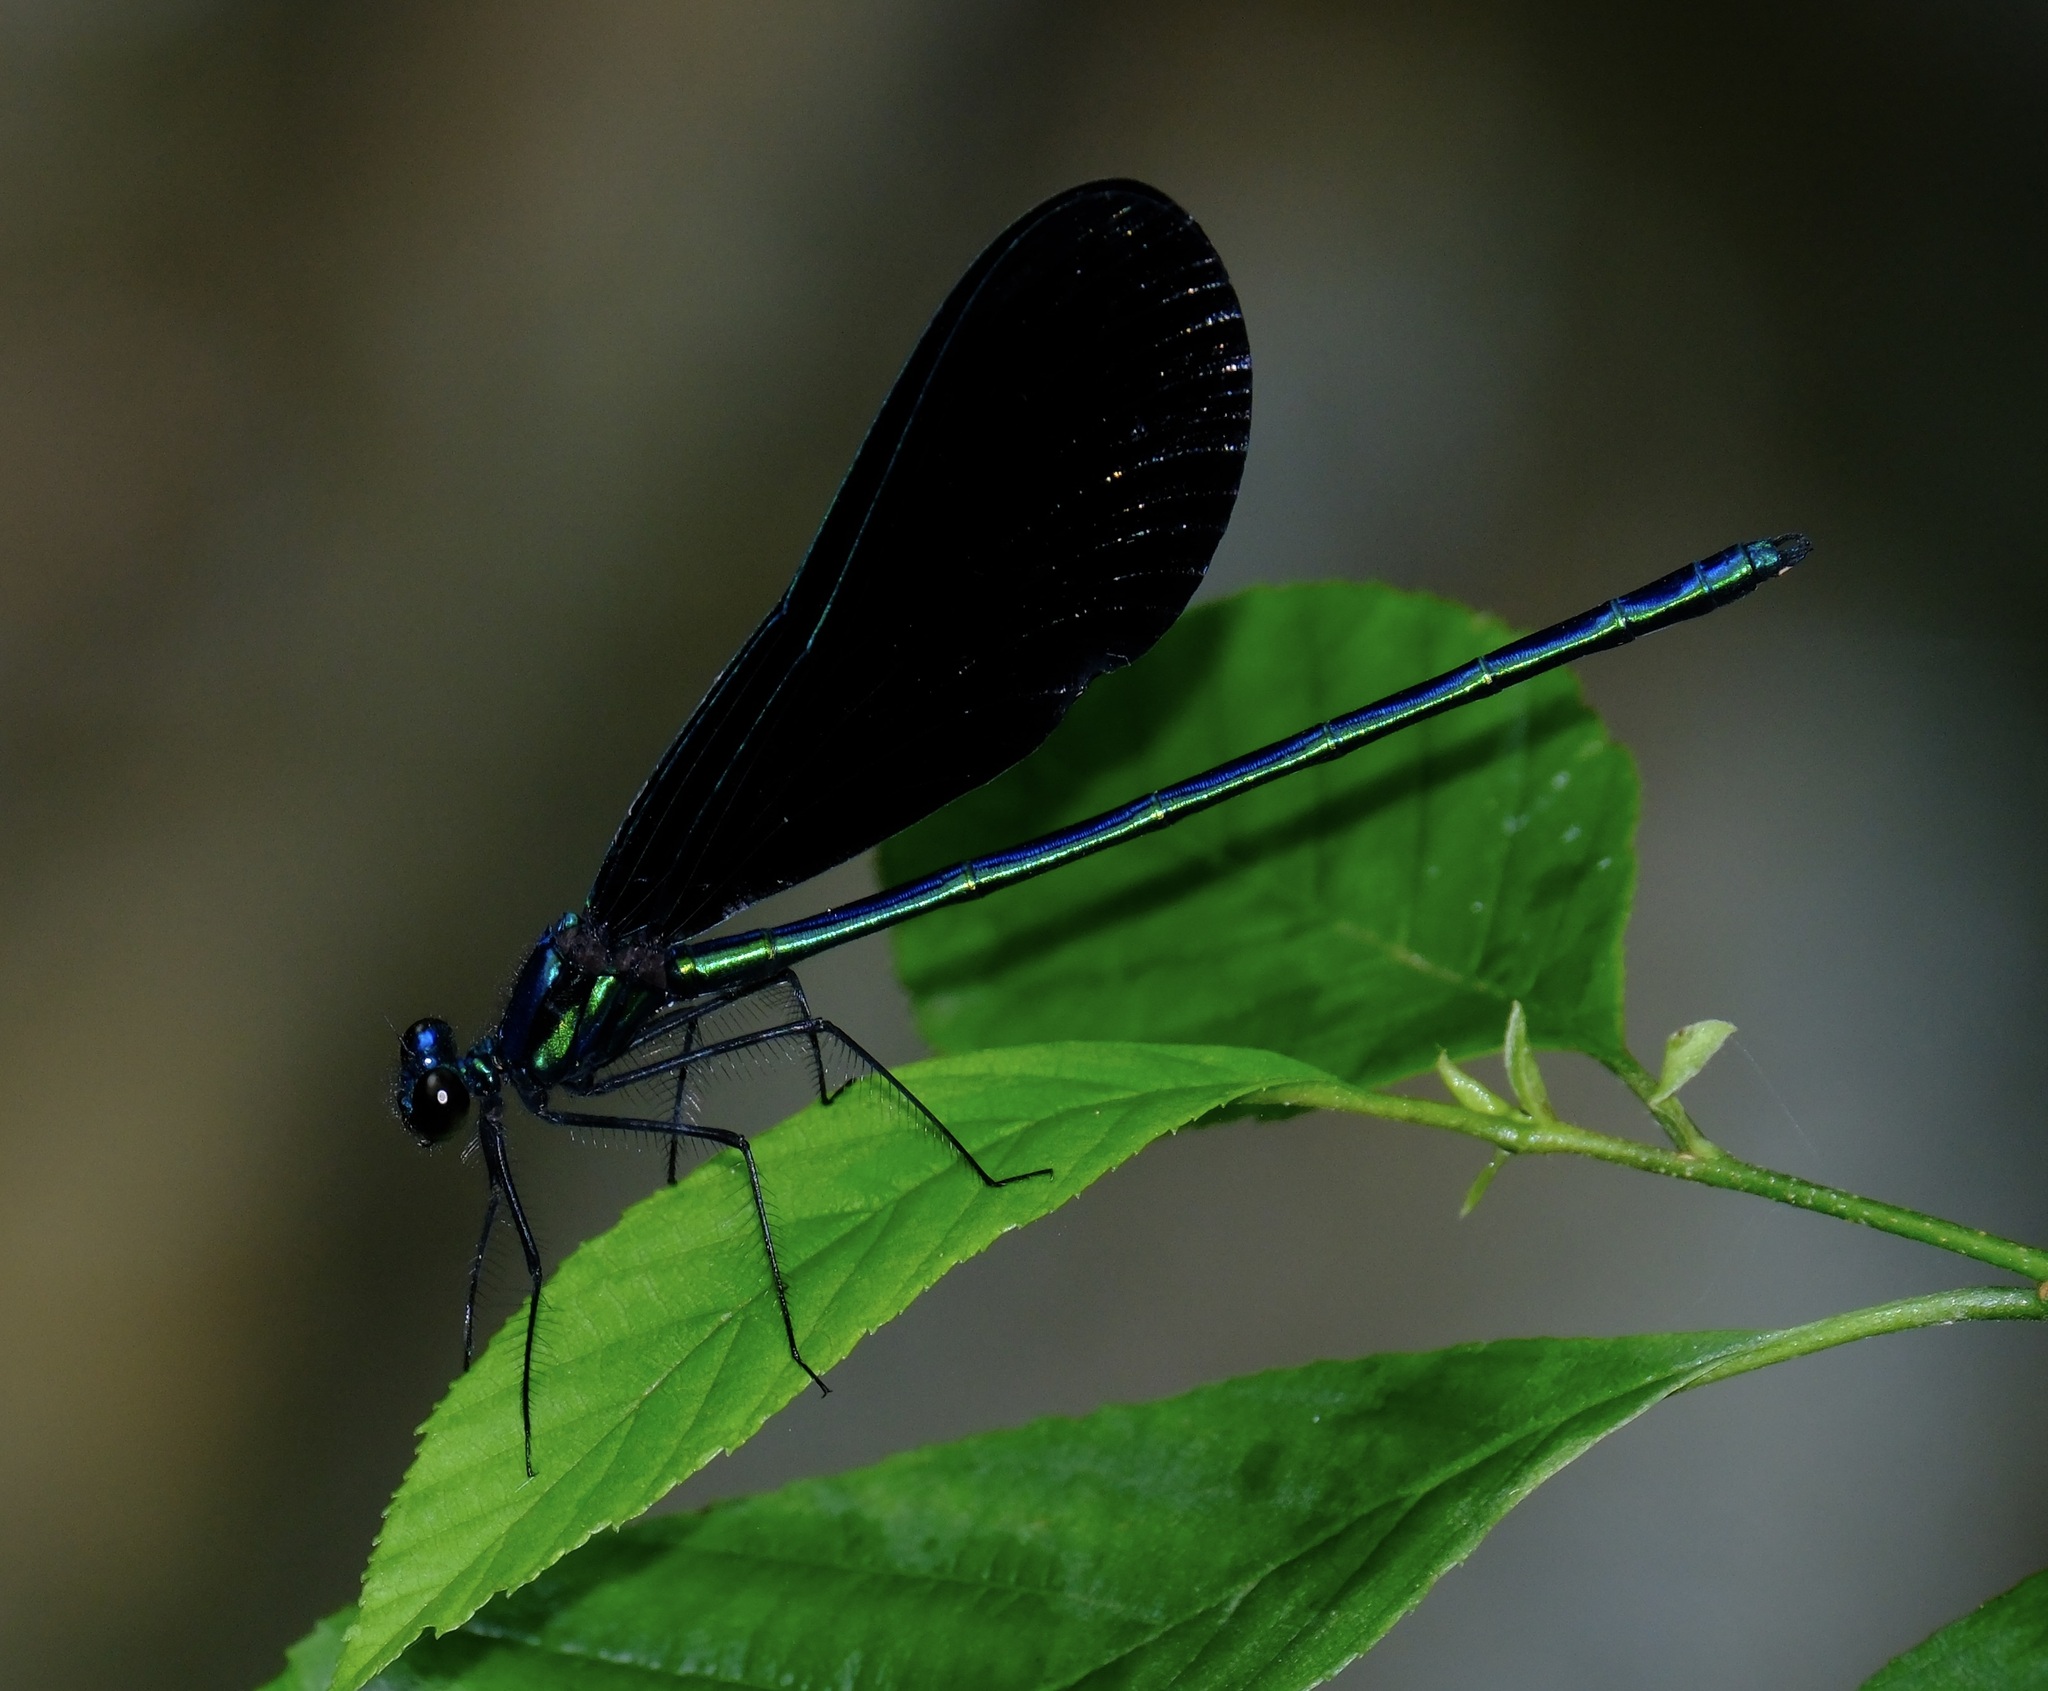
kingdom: Animalia
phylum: Arthropoda
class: Insecta
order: Odonata
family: Calopterygidae
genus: Calopteryx
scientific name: Calopteryx maculata
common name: Ebony jewelwing
